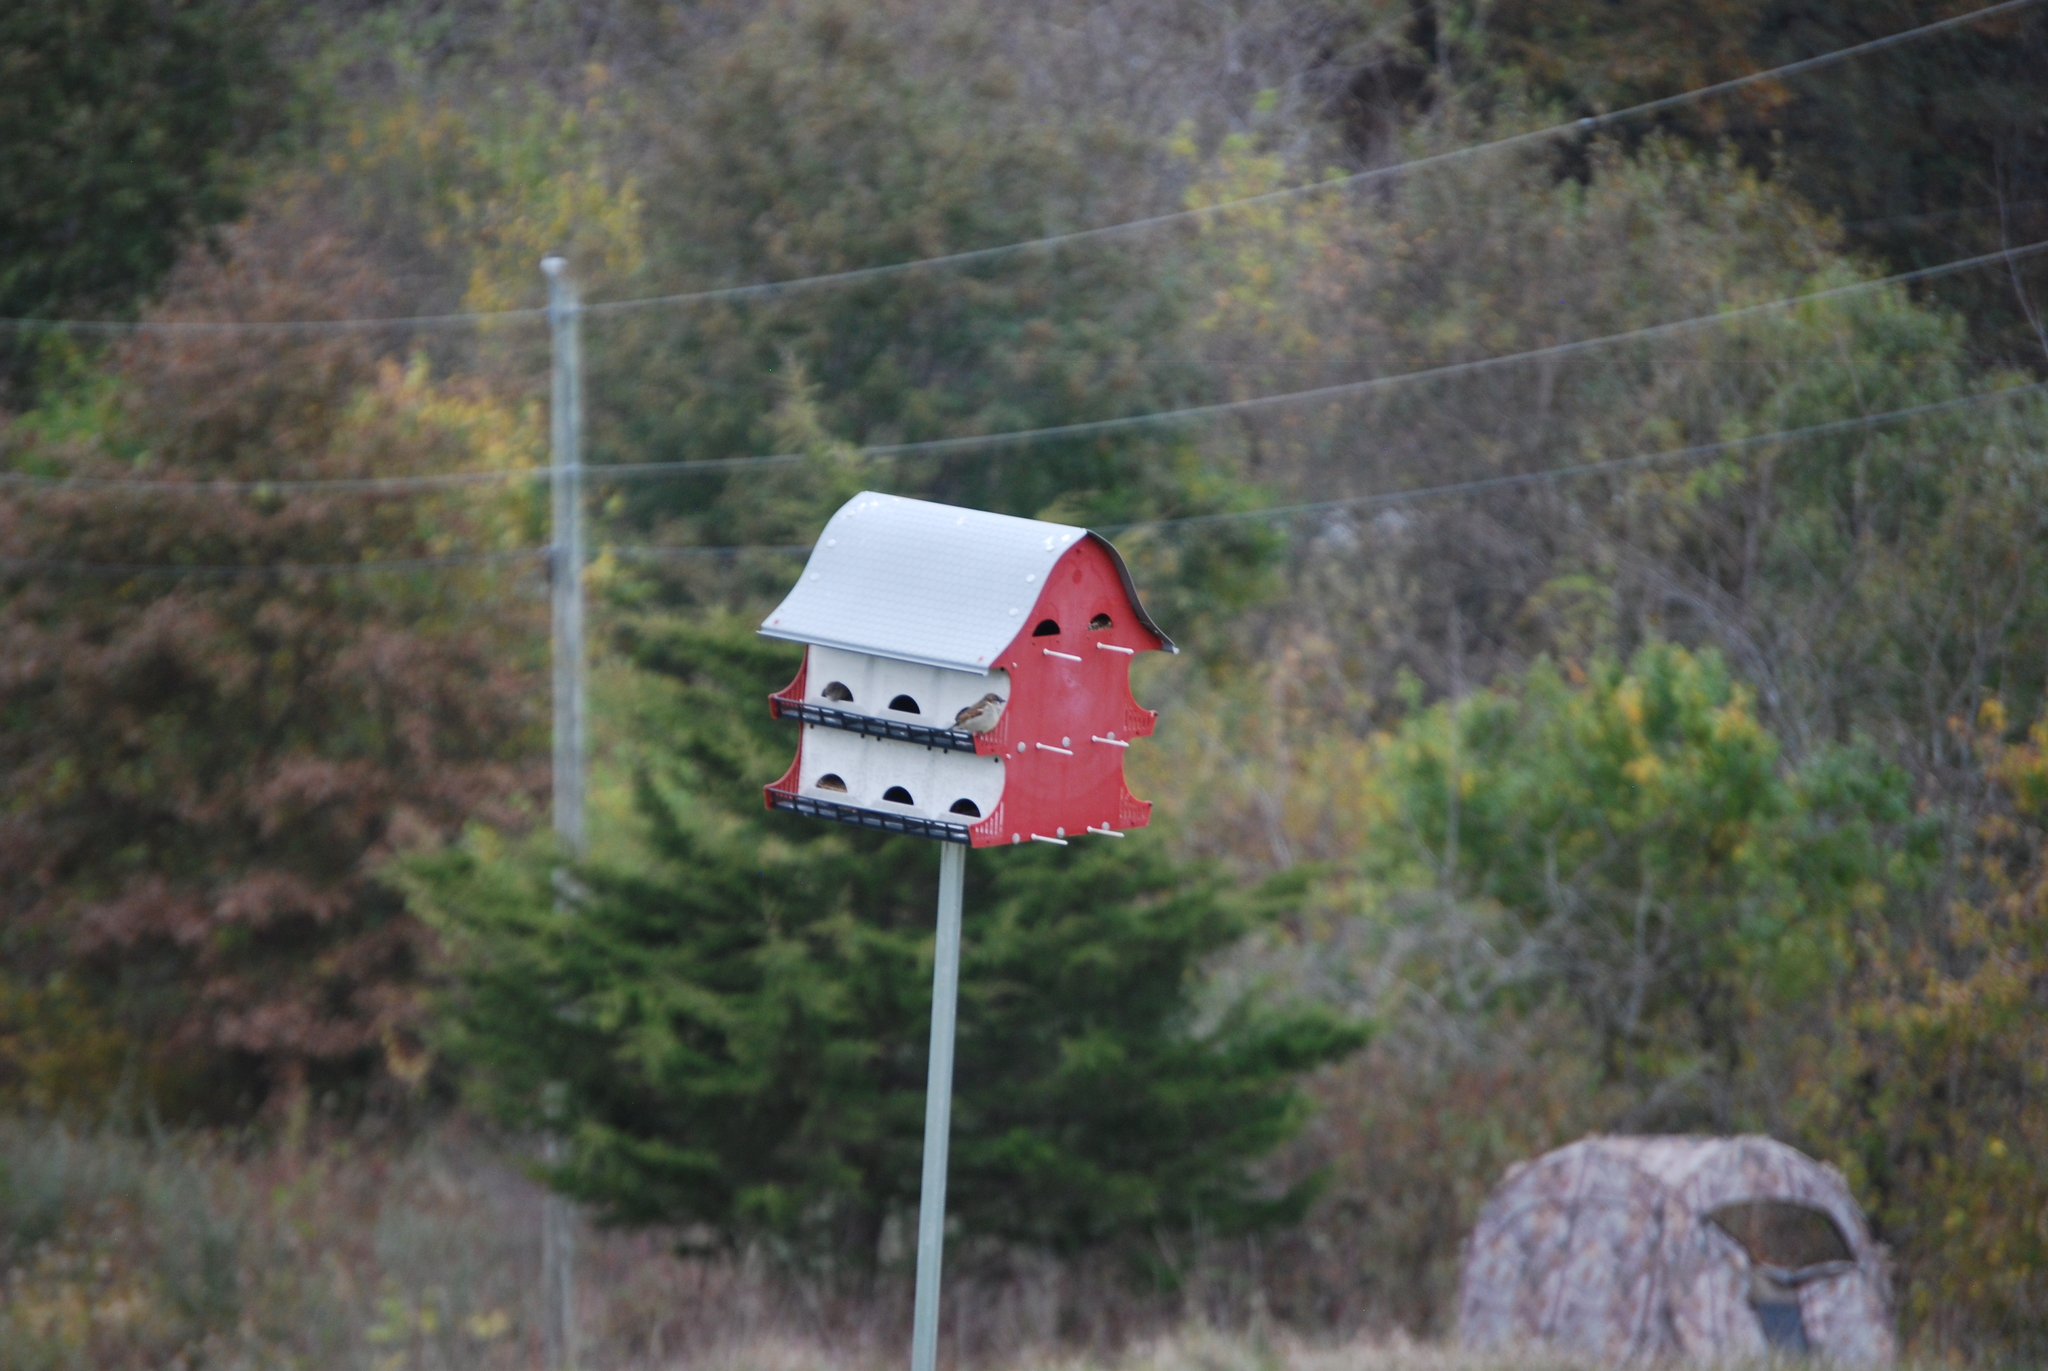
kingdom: Animalia
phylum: Chordata
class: Aves
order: Passeriformes
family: Passeridae
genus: Passer
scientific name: Passer domesticus
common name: House sparrow
